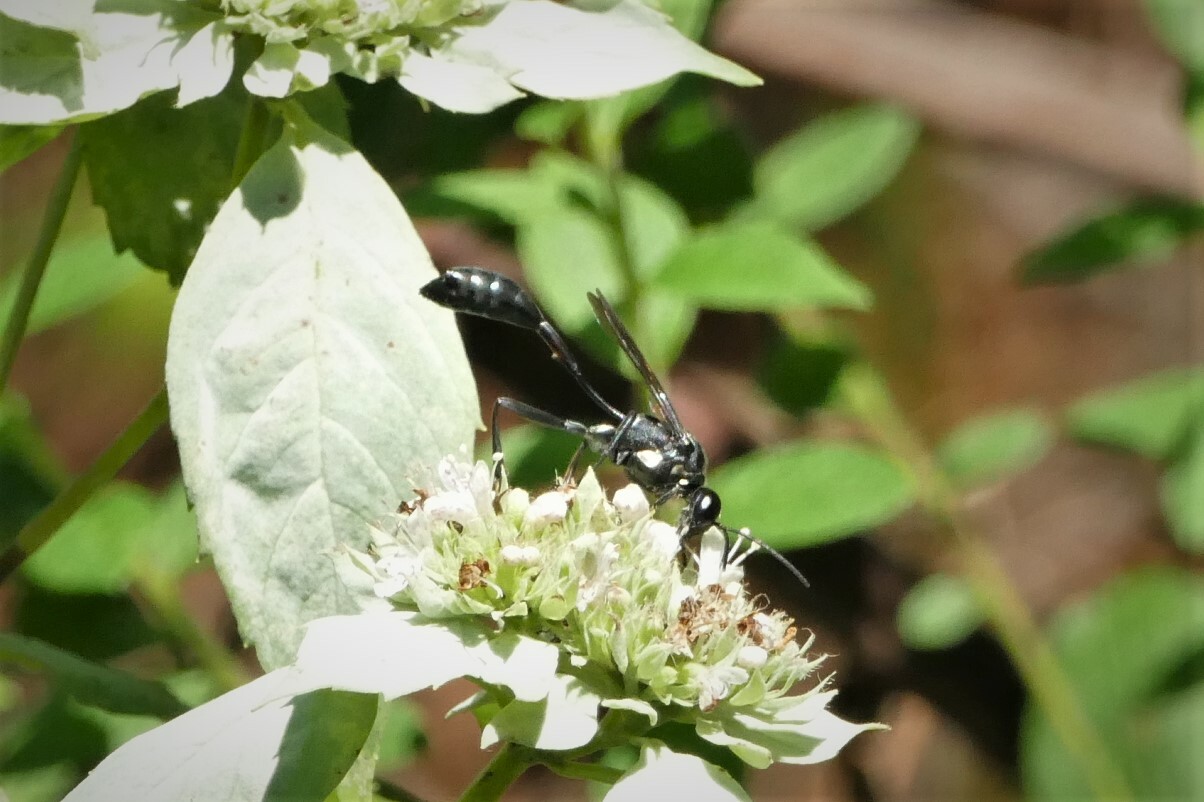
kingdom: Animalia
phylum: Arthropoda
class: Insecta
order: Hymenoptera
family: Sphecidae
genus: Eremnophila
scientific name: Eremnophila aureonotata
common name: Gold-marked thread-waisted wasp
